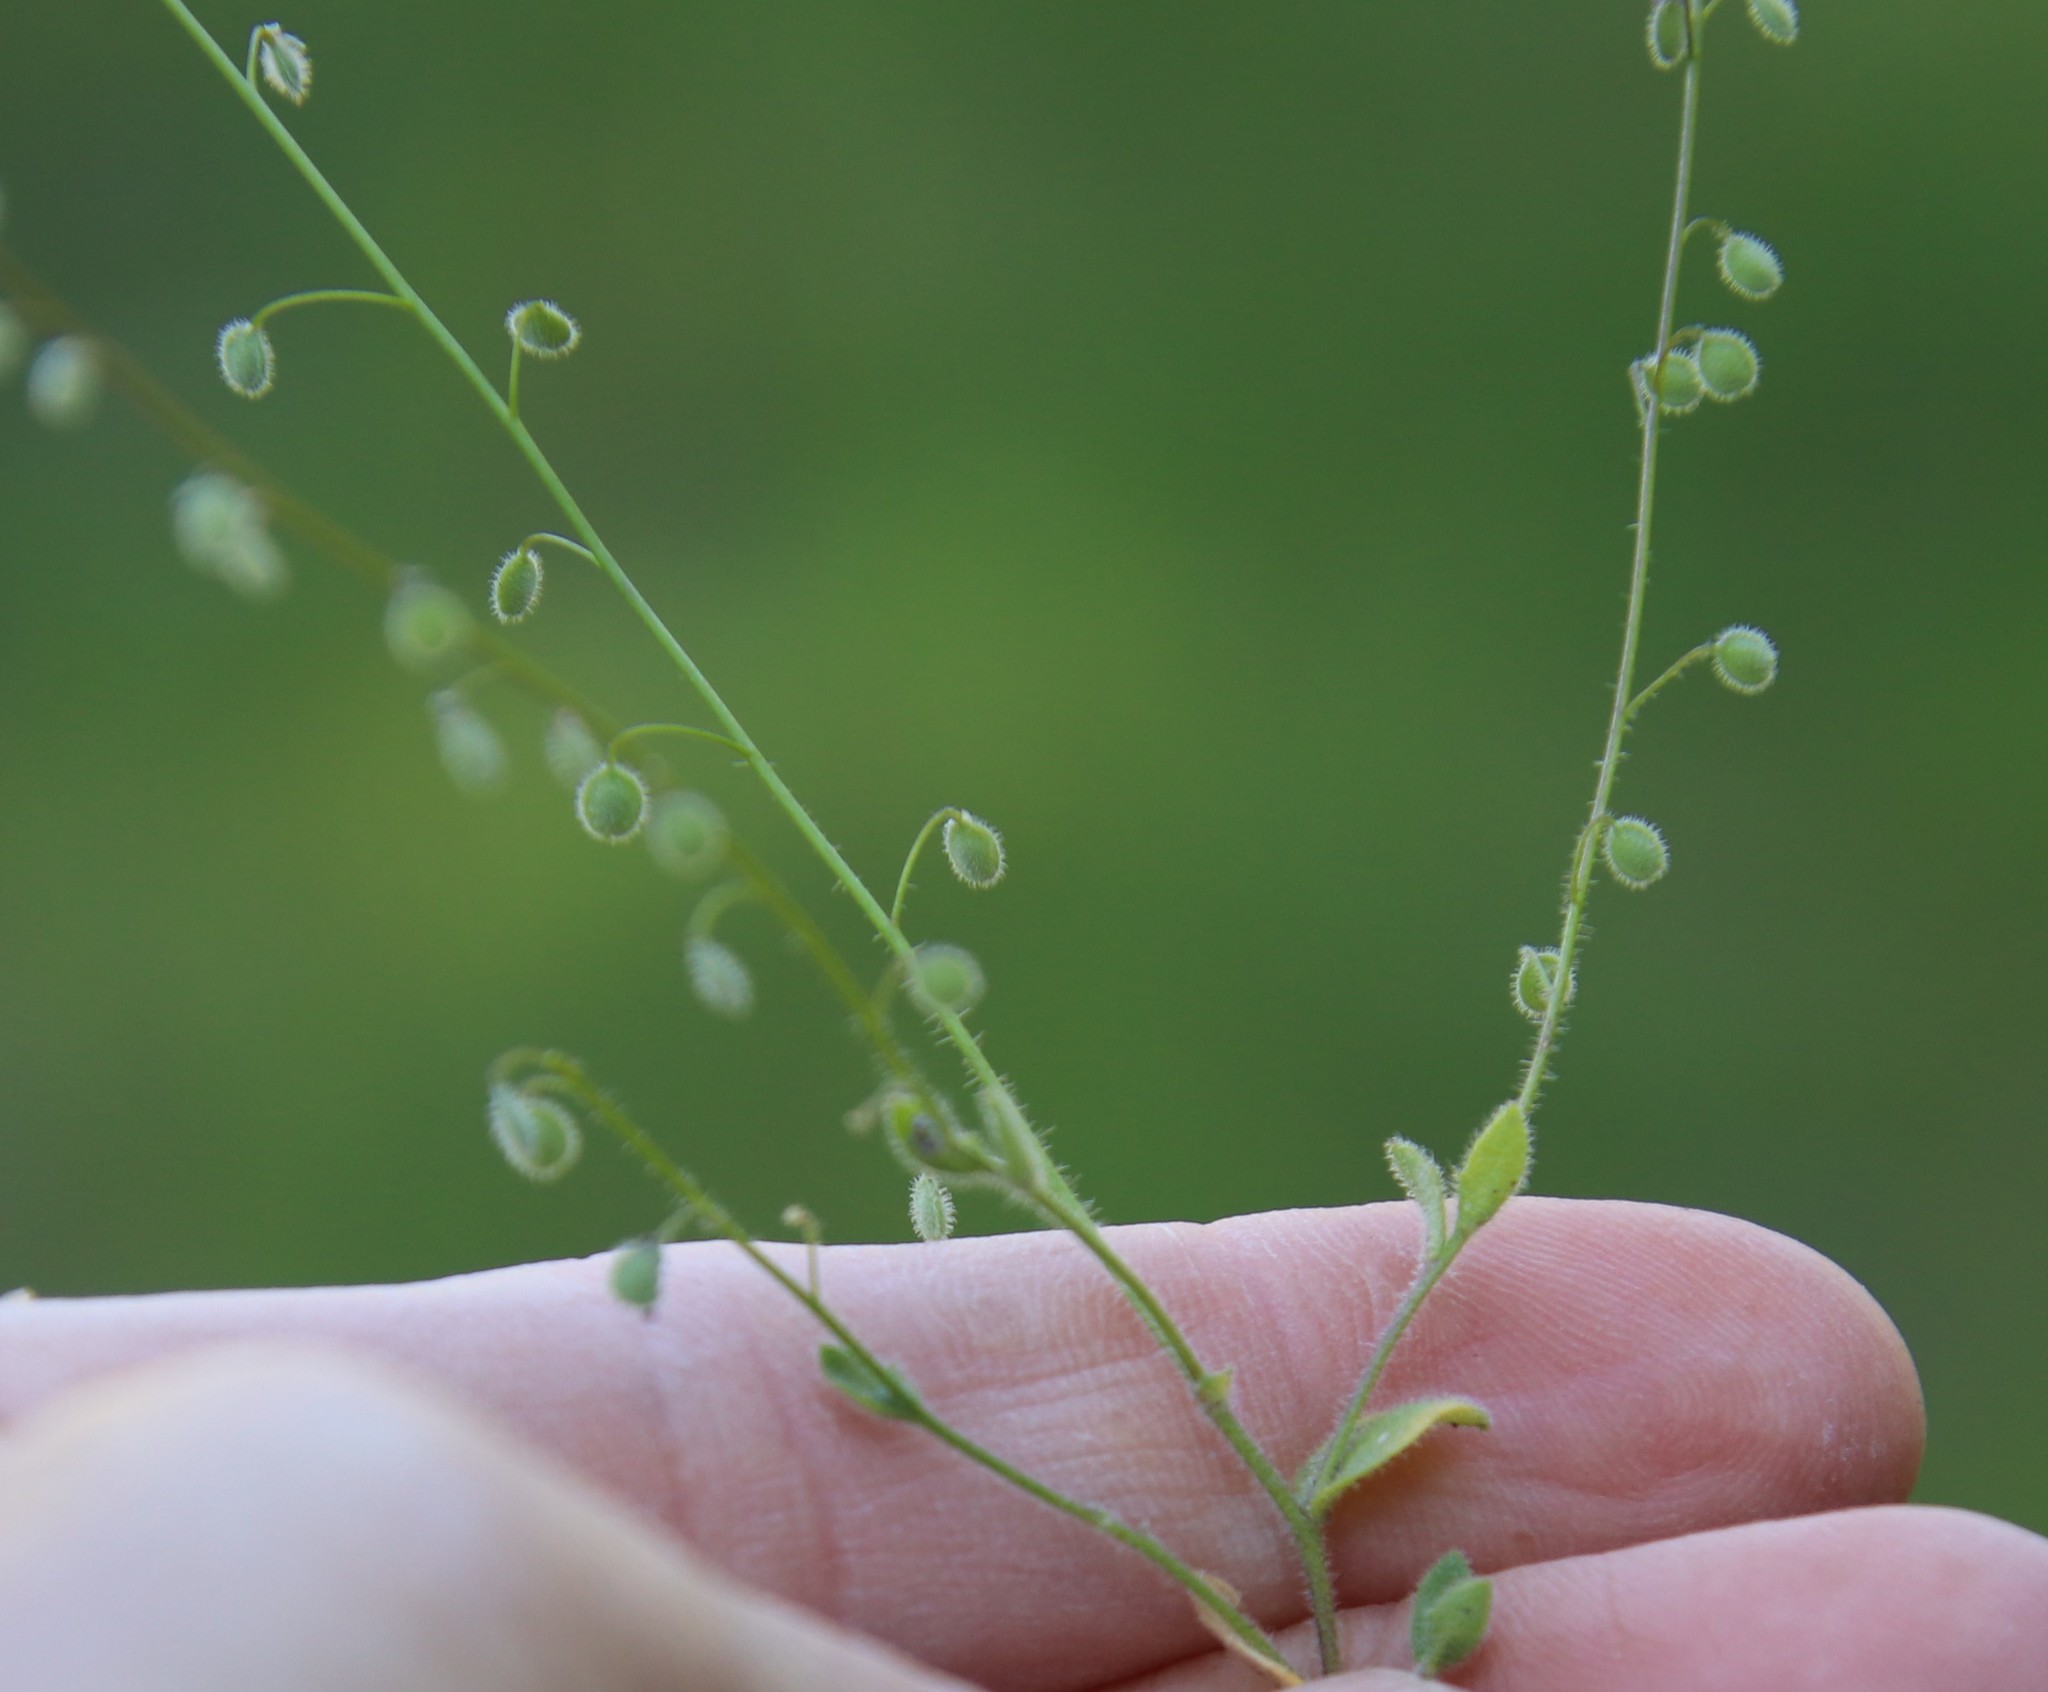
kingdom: Plantae
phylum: Tracheophyta
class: Magnoliopsida
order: Brassicales
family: Brassicaceae
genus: Athysanus
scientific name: Athysanus pusillus
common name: Common sandweed
